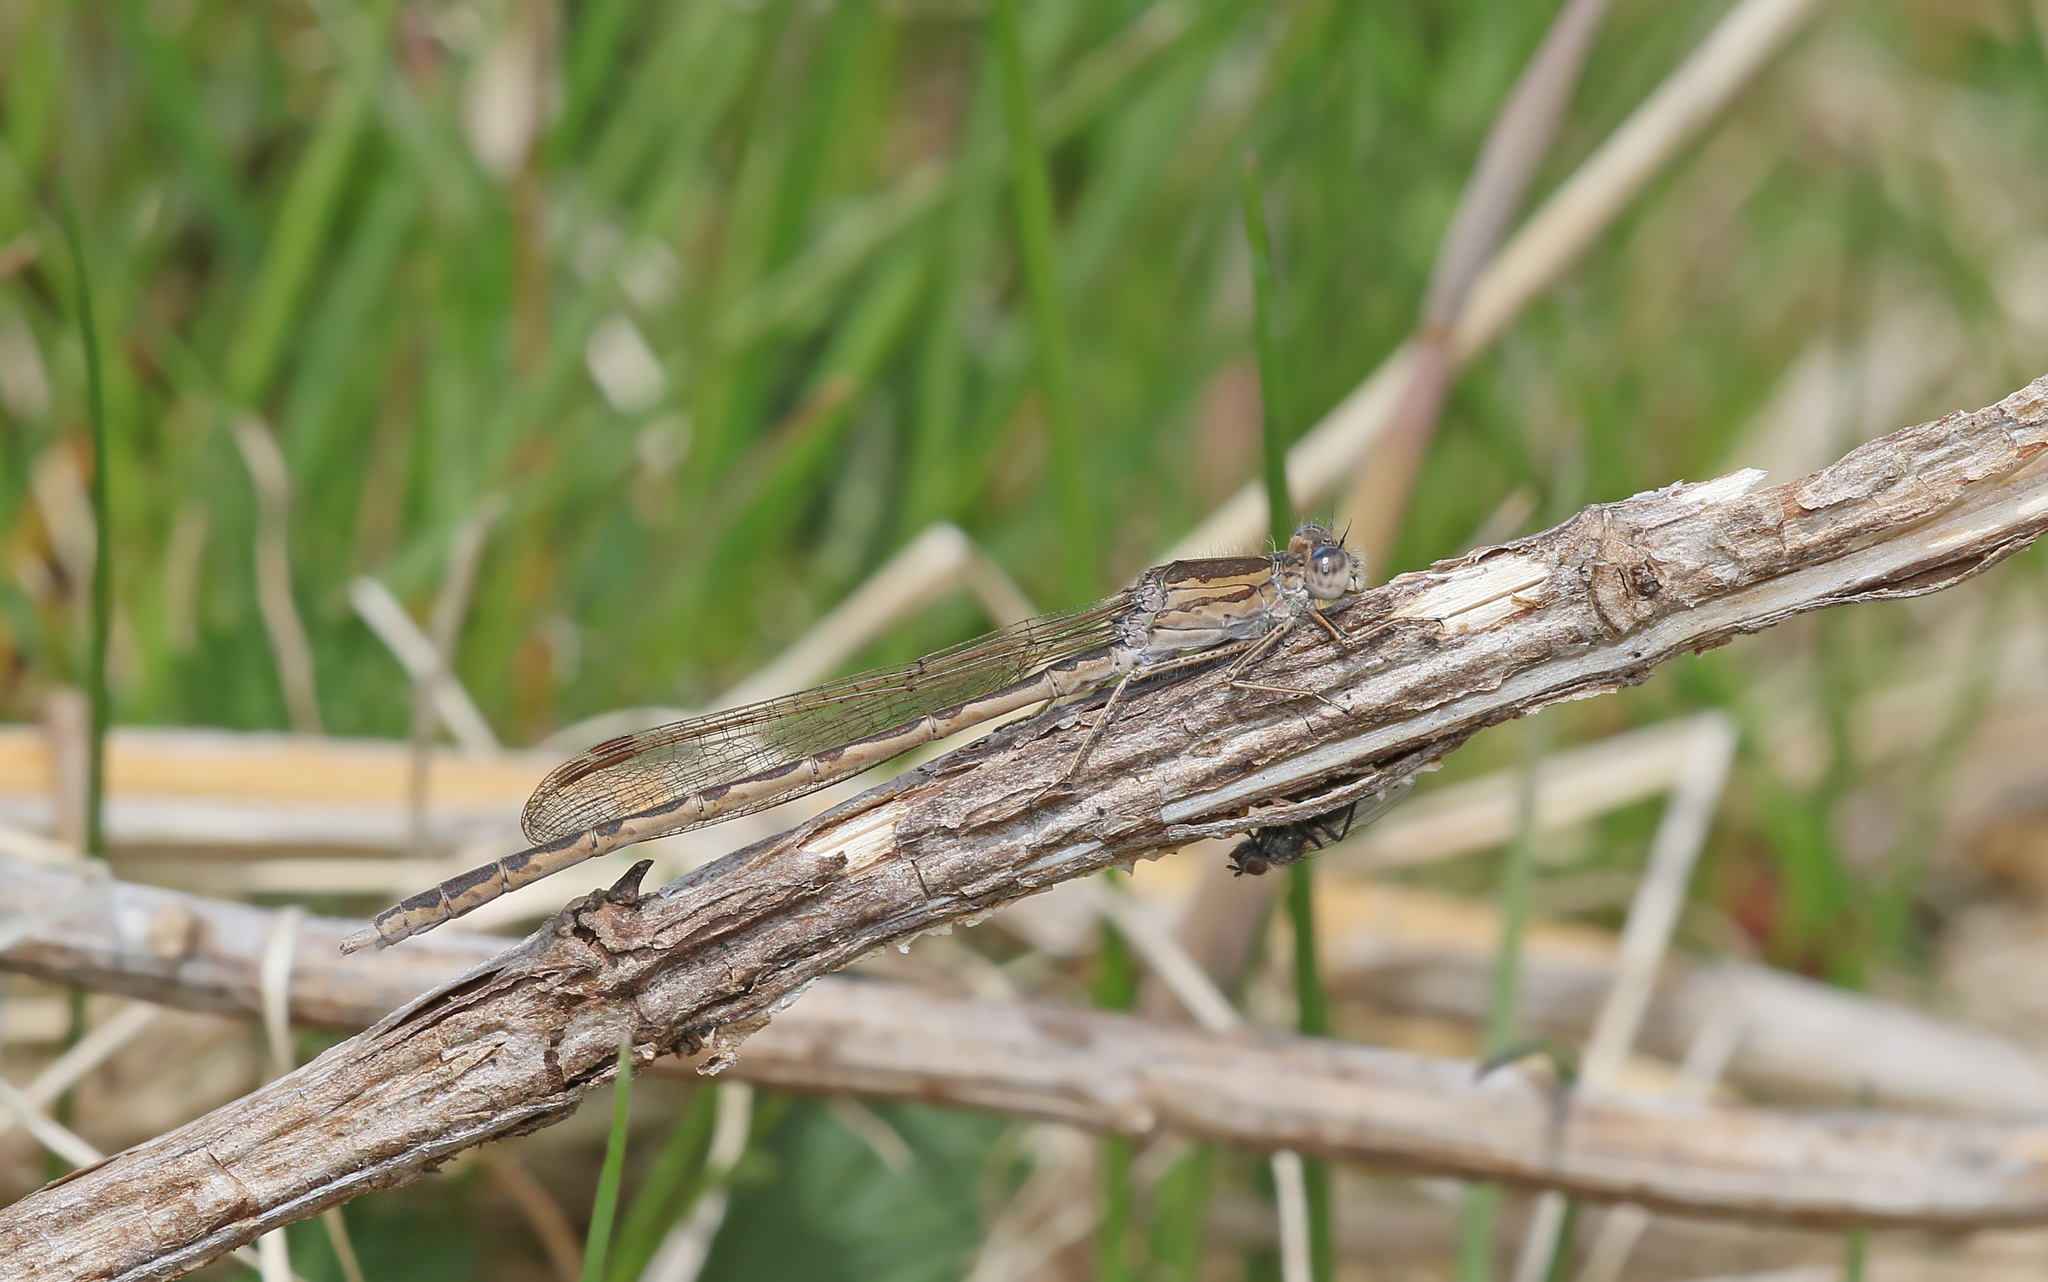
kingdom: Animalia
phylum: Arthropoda
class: Insecta
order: Odonata
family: Lestidae
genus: Sympecma
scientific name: Sympecma paedisca
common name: Siberian winter damsel
